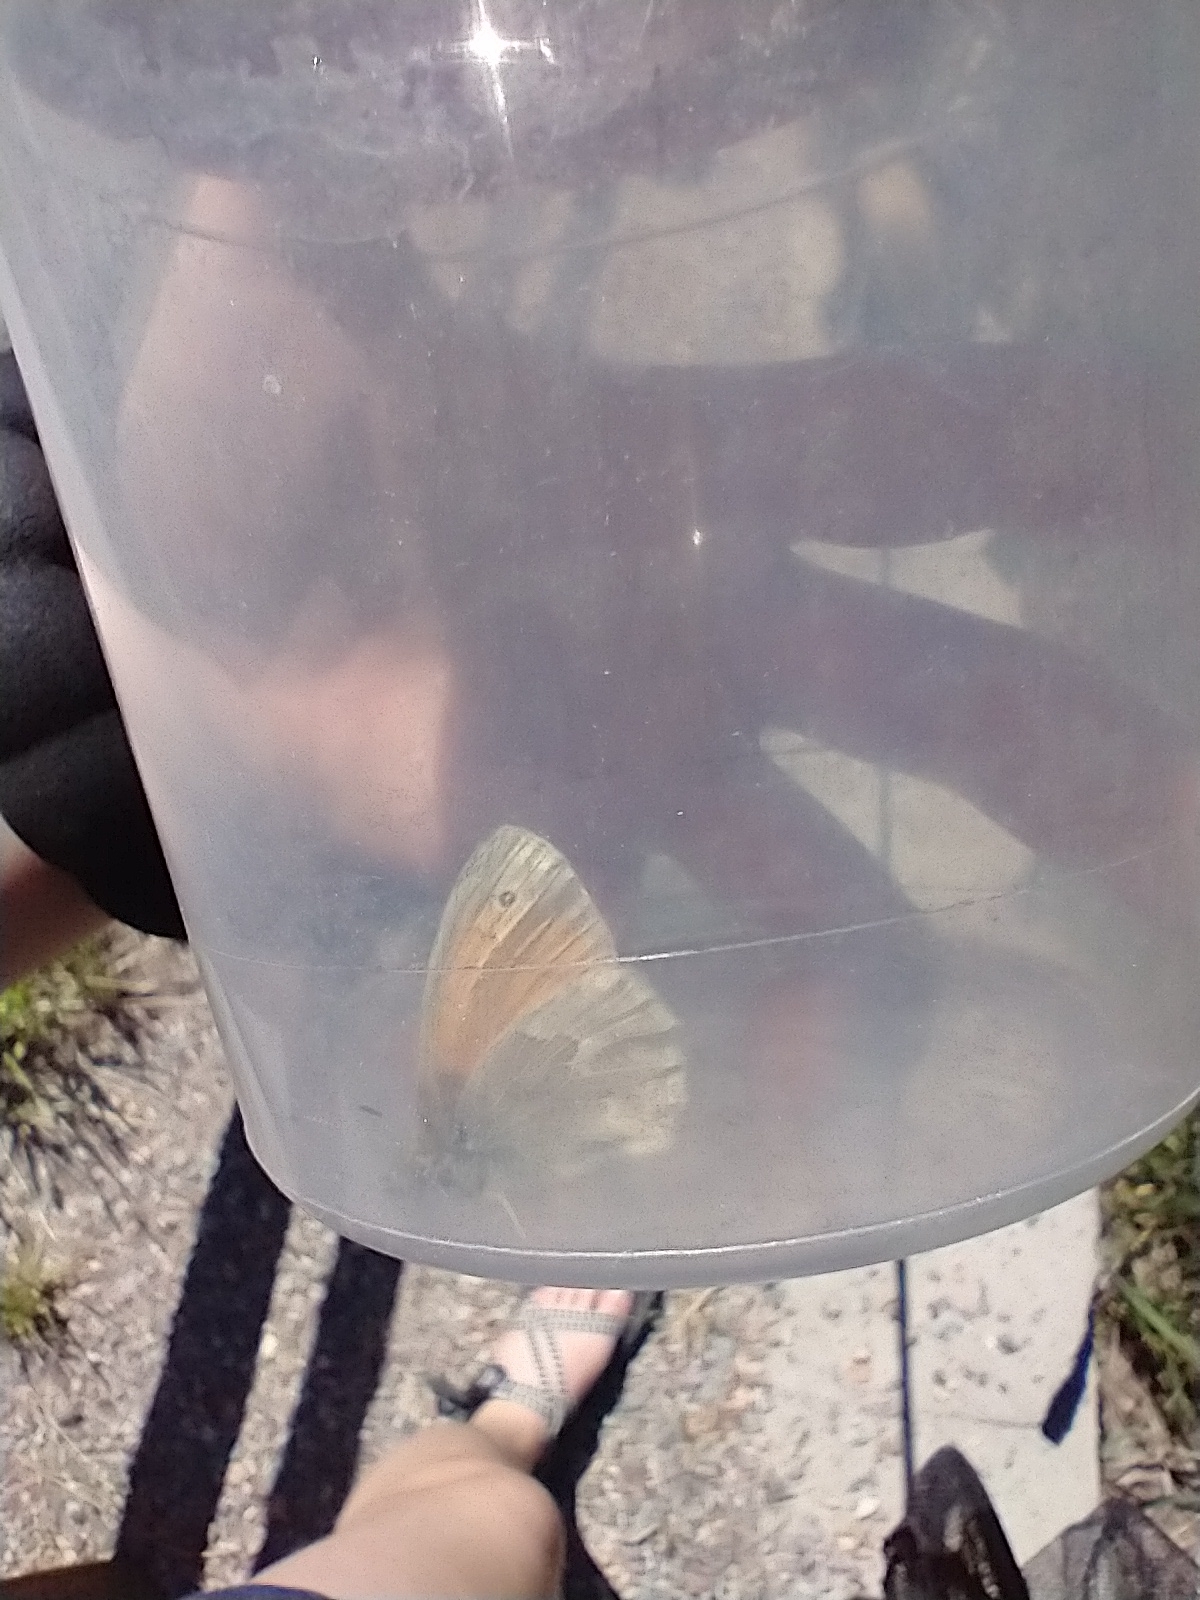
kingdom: Animalia
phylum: Arthropoda
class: Insecta
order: Lepidoptera
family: Nymphalidae
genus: Coenonympha
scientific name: Coenonympha california
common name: Common ringlet
